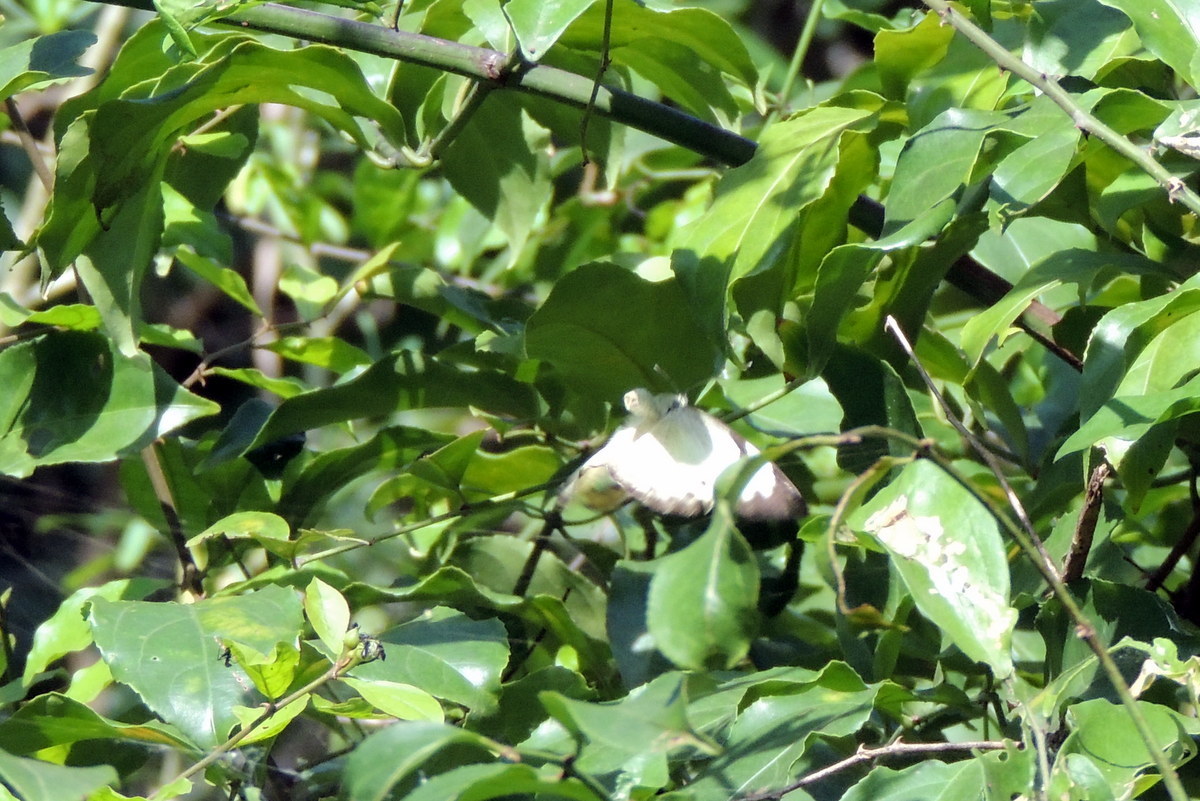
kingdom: Animalia
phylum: Arthropoda
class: Insecta
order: Lepidoptera
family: Pieridae
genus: Belenois
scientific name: Belenois calypso
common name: Calypso caper white
